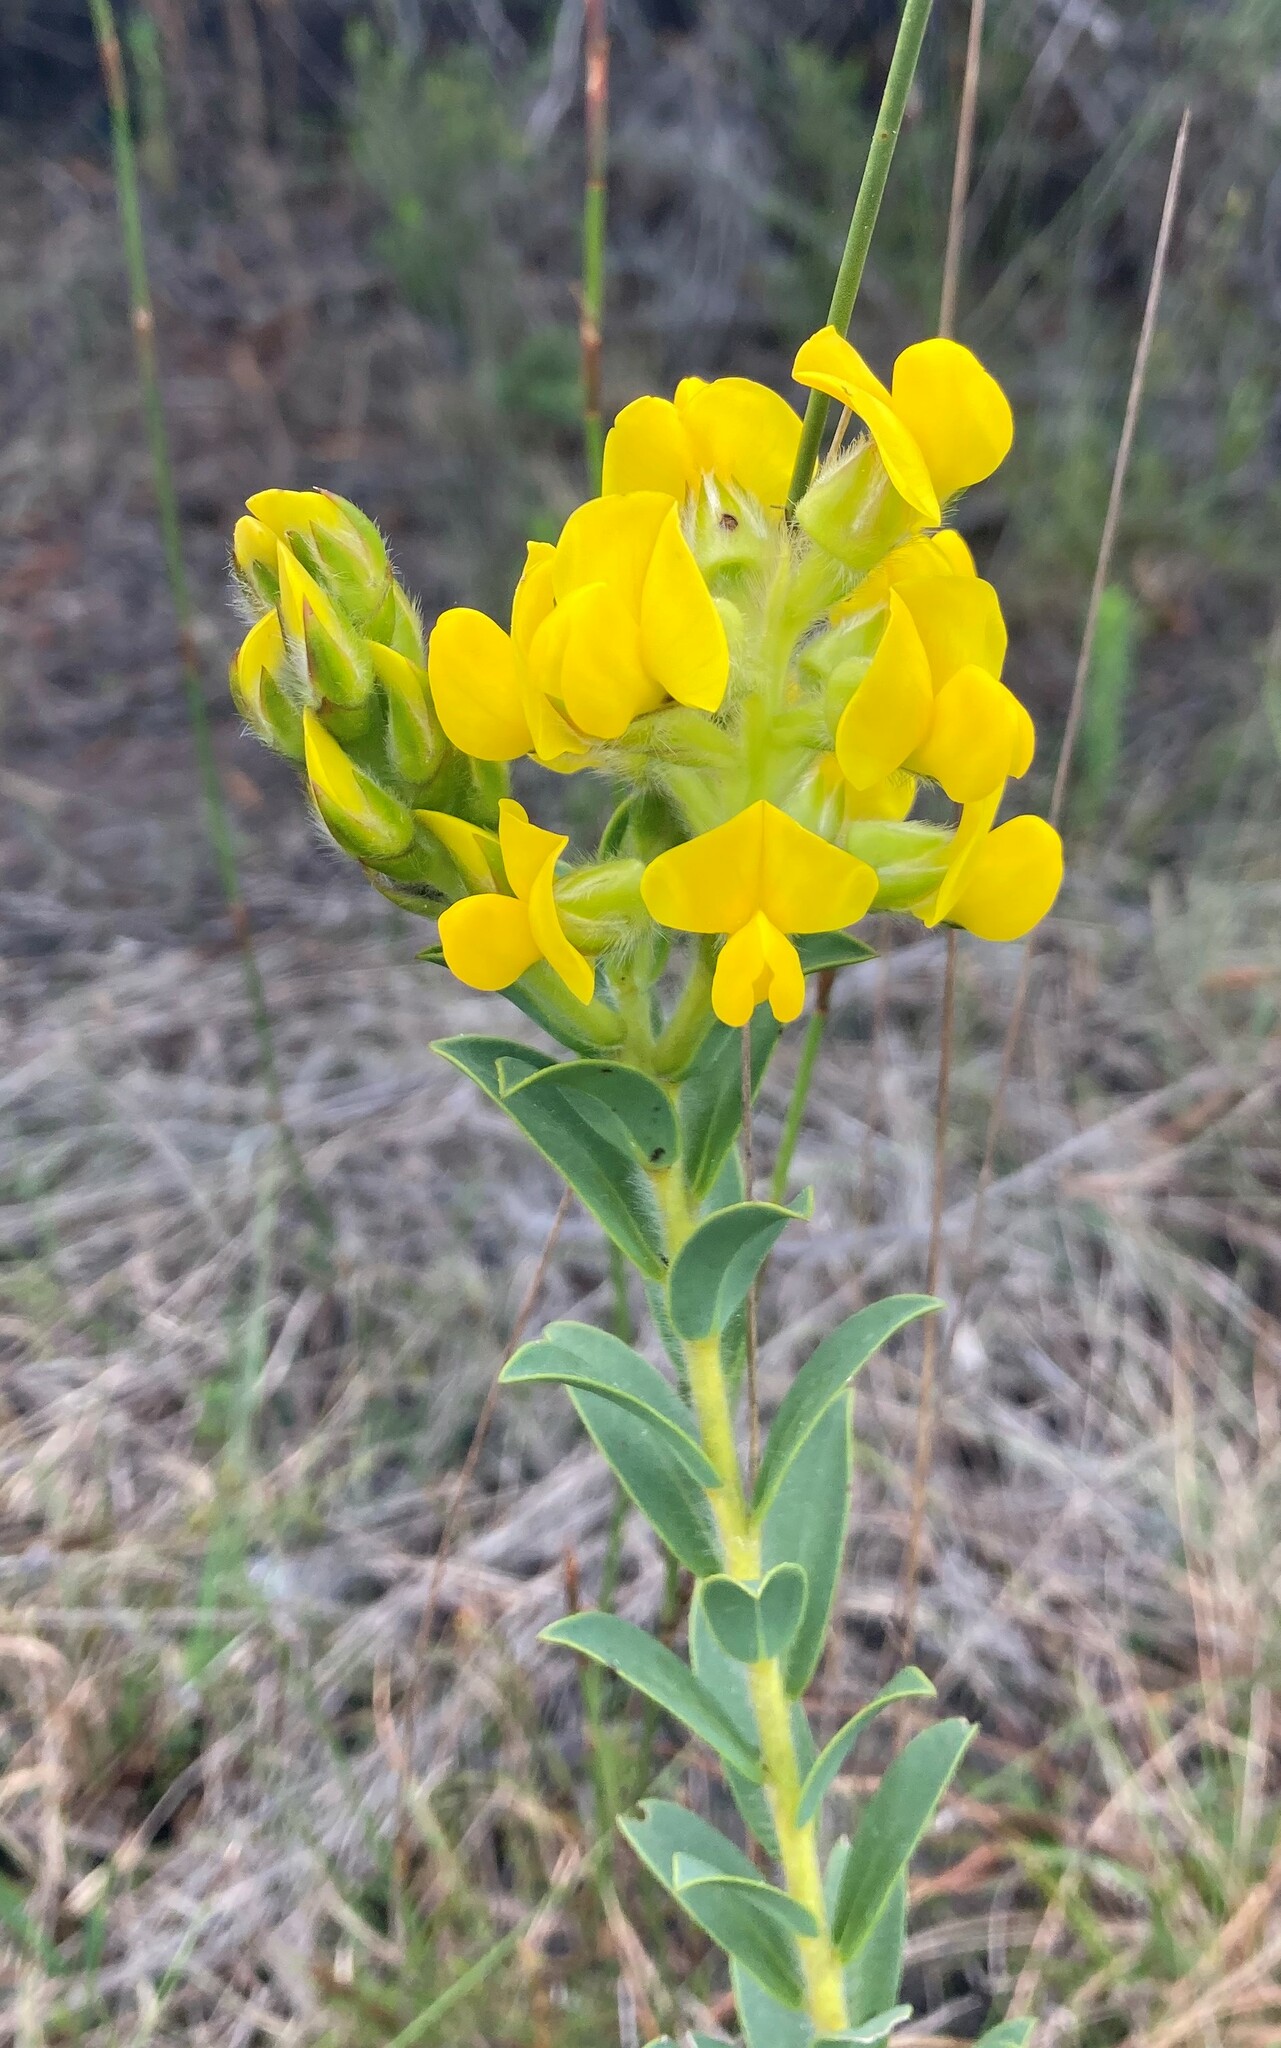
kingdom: Plantae
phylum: Tracheophyta
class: Magnoliopsida
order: Fabales
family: Fabaceae
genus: Liparia
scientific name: Liparia hirsuta
